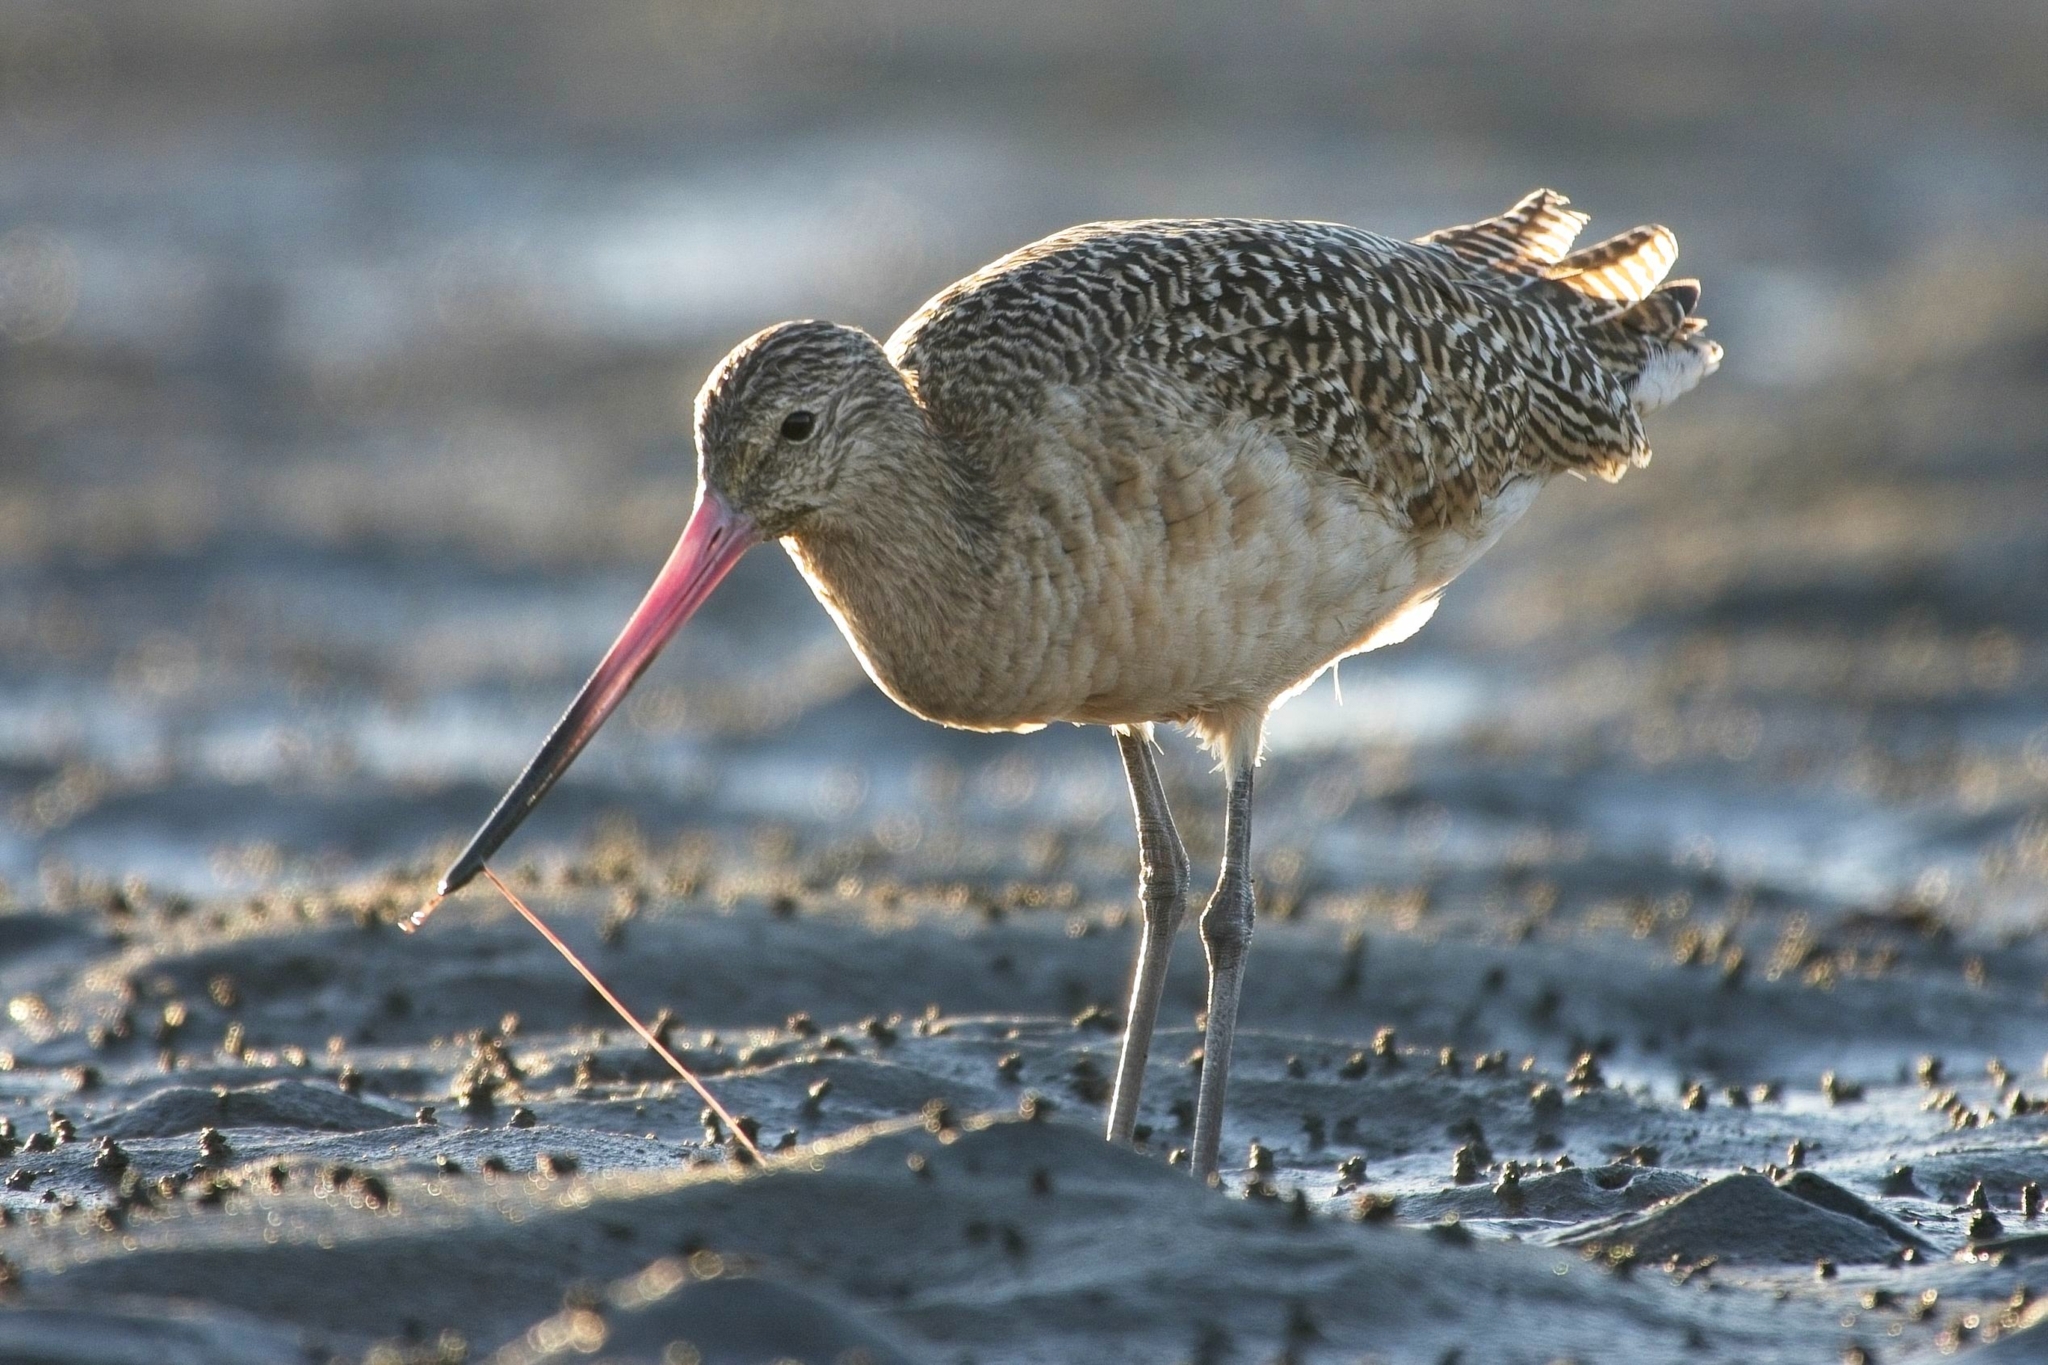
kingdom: Animalia
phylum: Chordata
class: Aves
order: Charadriiformes
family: Scolopacidae
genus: Limosa
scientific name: Limosa fedoa
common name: Marbled godwit
